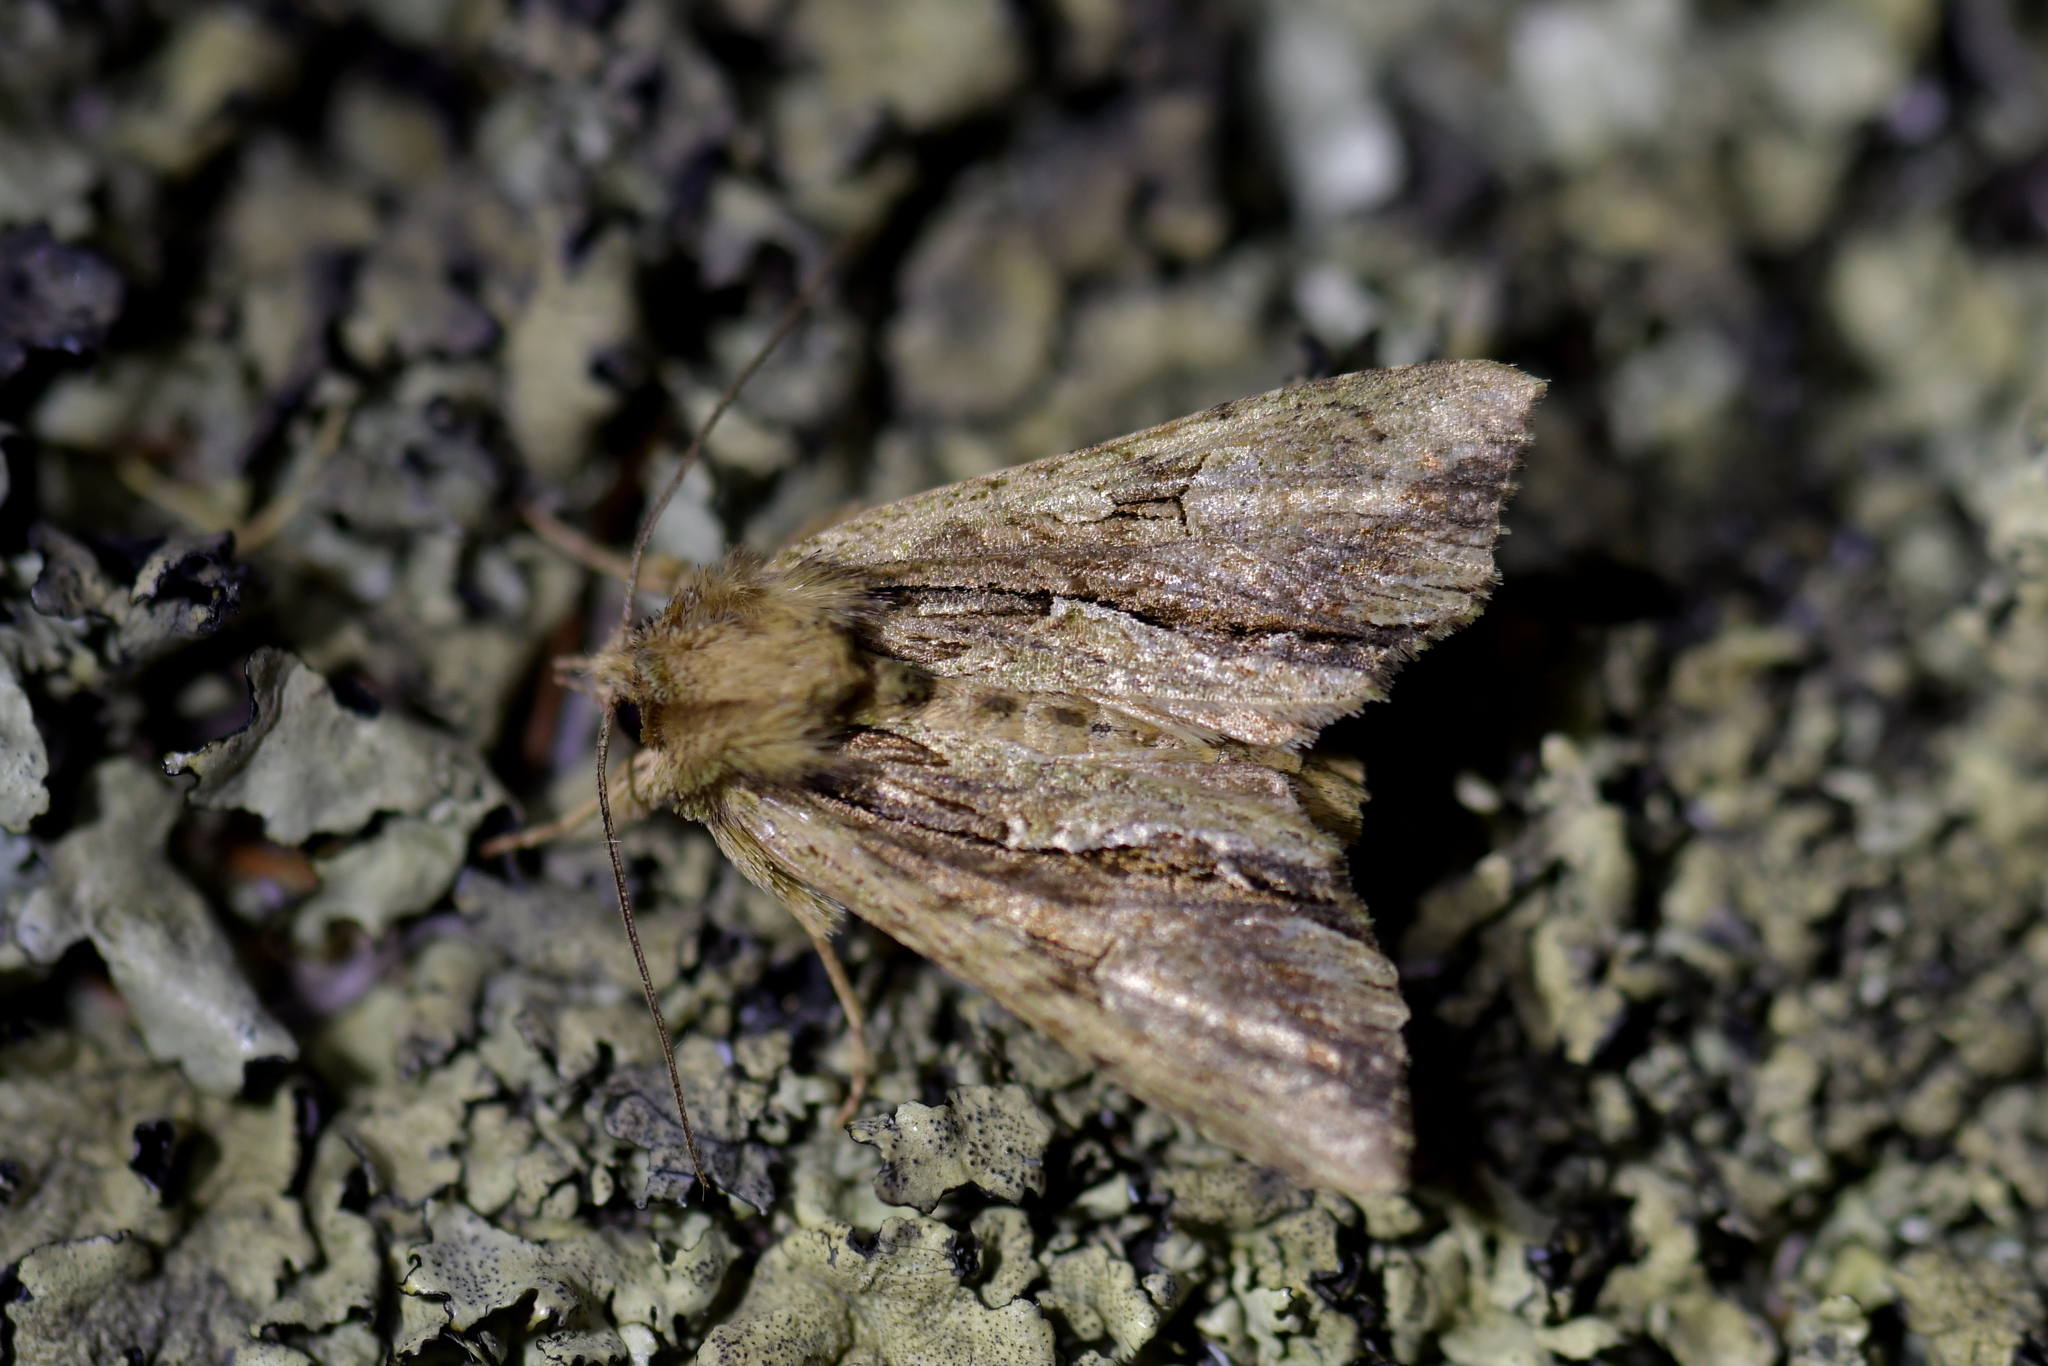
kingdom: Animalia
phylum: Arthropoda
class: Insecta
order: Lepidoptera
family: Noctuidae
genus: Meterana
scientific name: Meterana decorata
